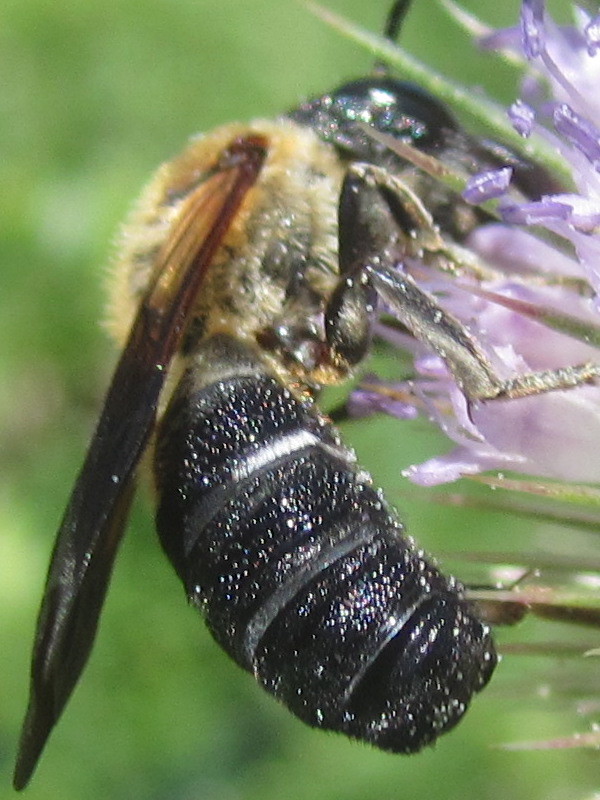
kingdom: Animalia
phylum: Arthropoda
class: Insecta
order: Hymenoptera
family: Megachilidae
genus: Megachile
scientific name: Megachile sculpturalis
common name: Sculptured resin bee
